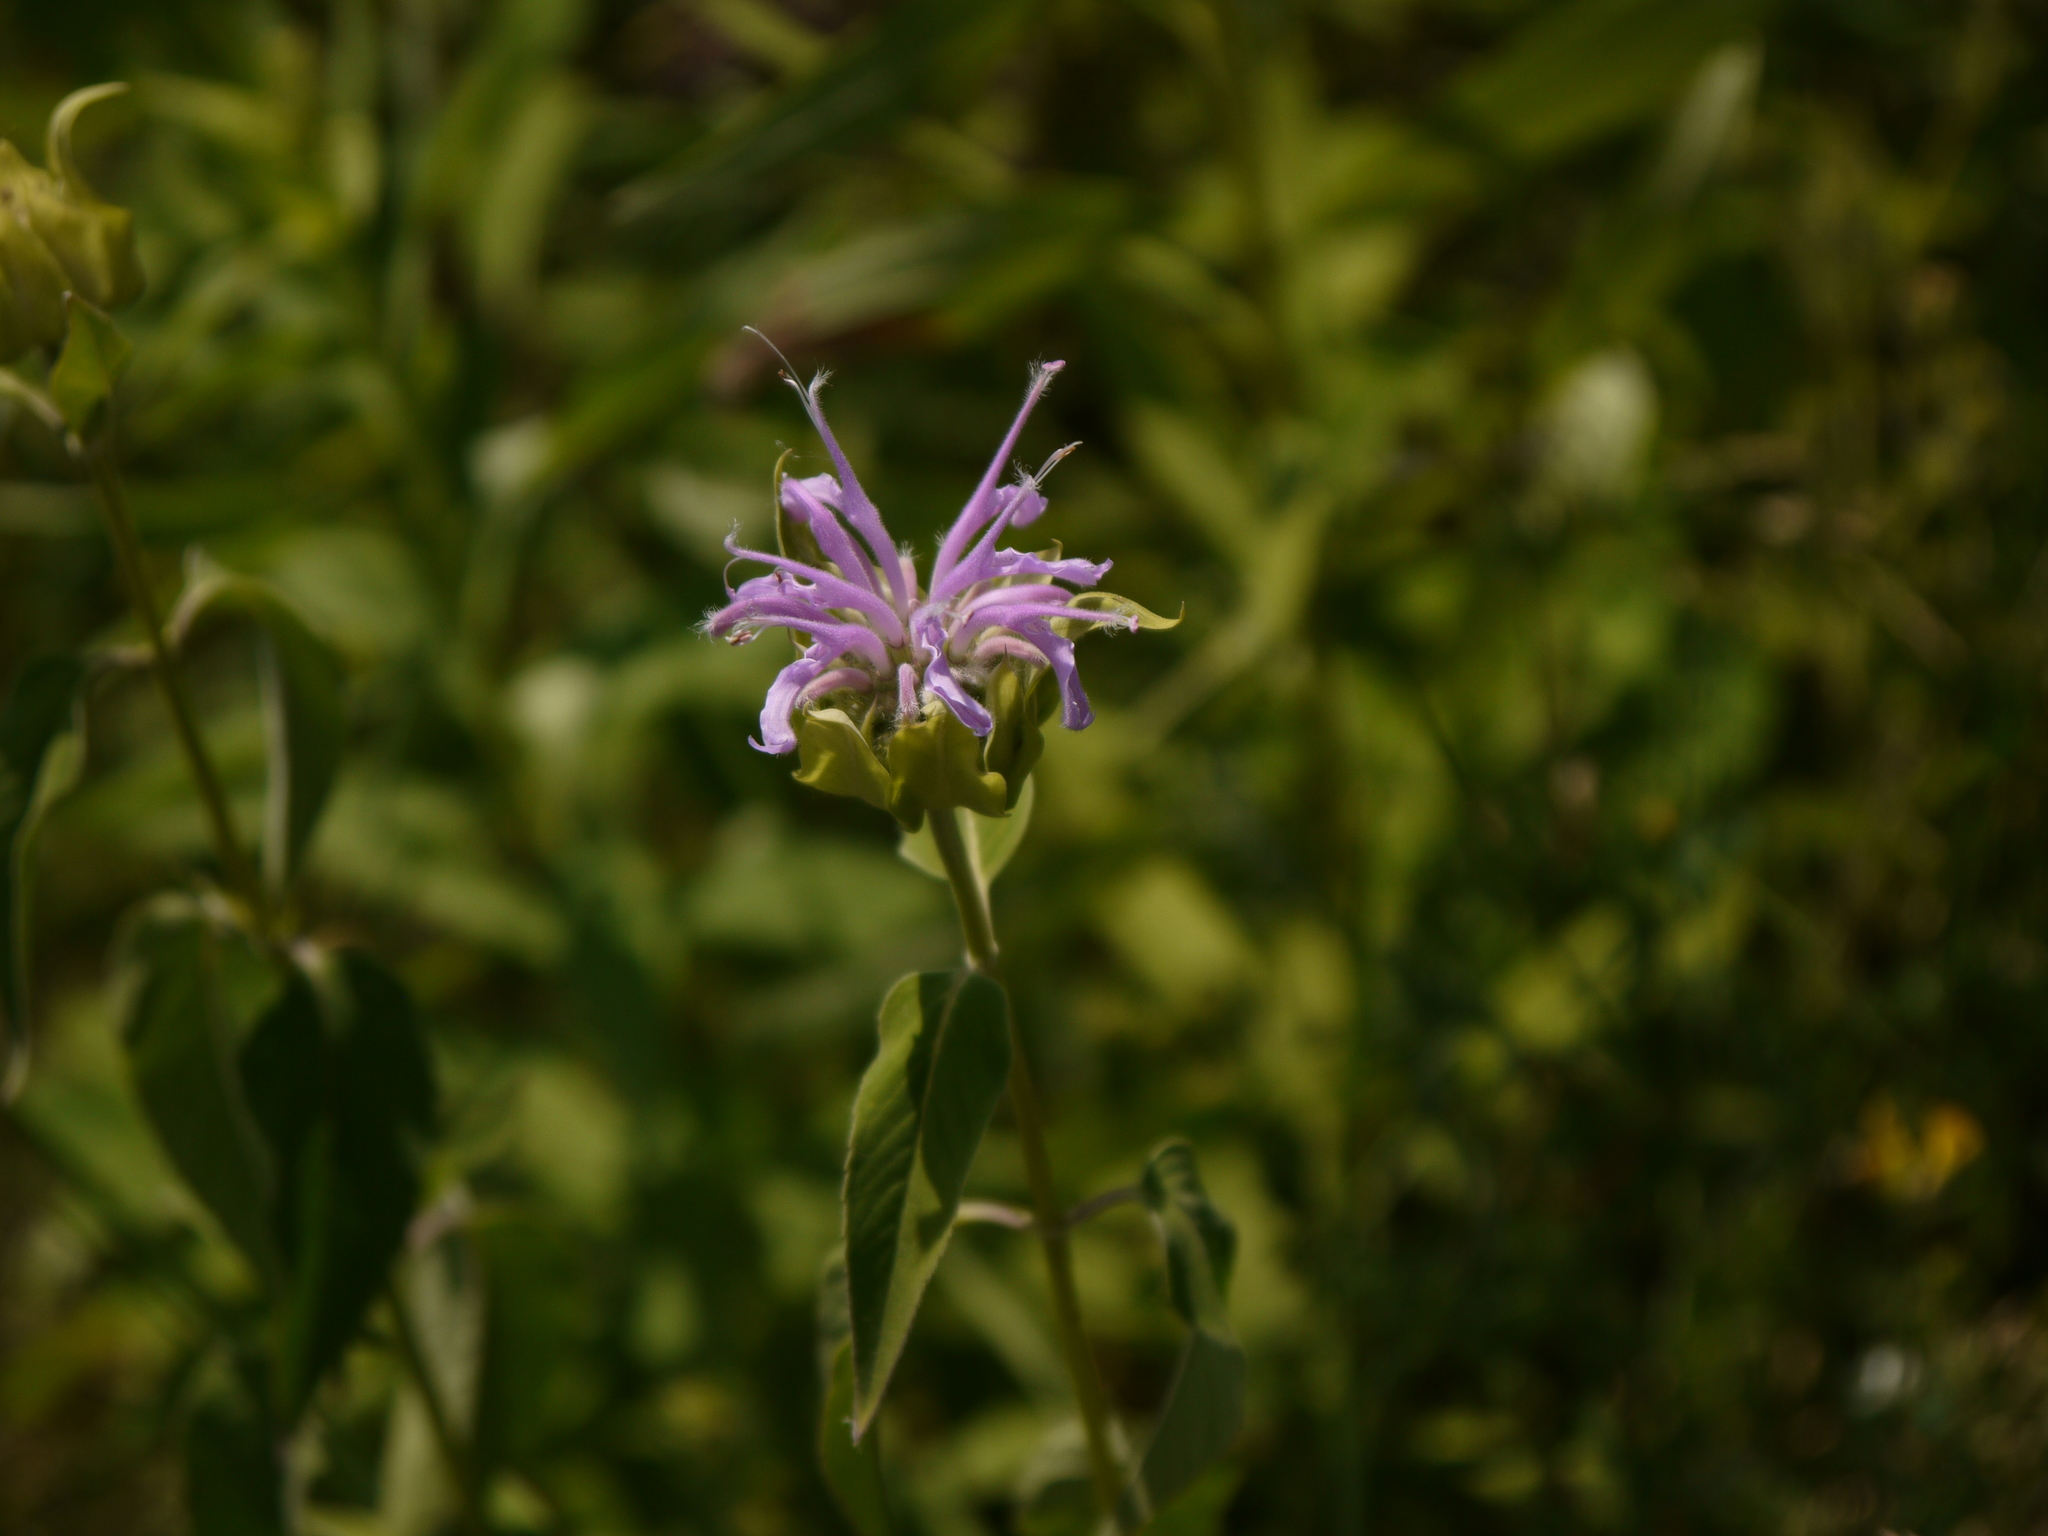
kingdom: Plantae
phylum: Tracheophyta
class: Magnoliopsida
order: Lamiales
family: Lamiaceae
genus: Monarda
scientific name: Monarda fistulosa
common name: Purple beebalm
